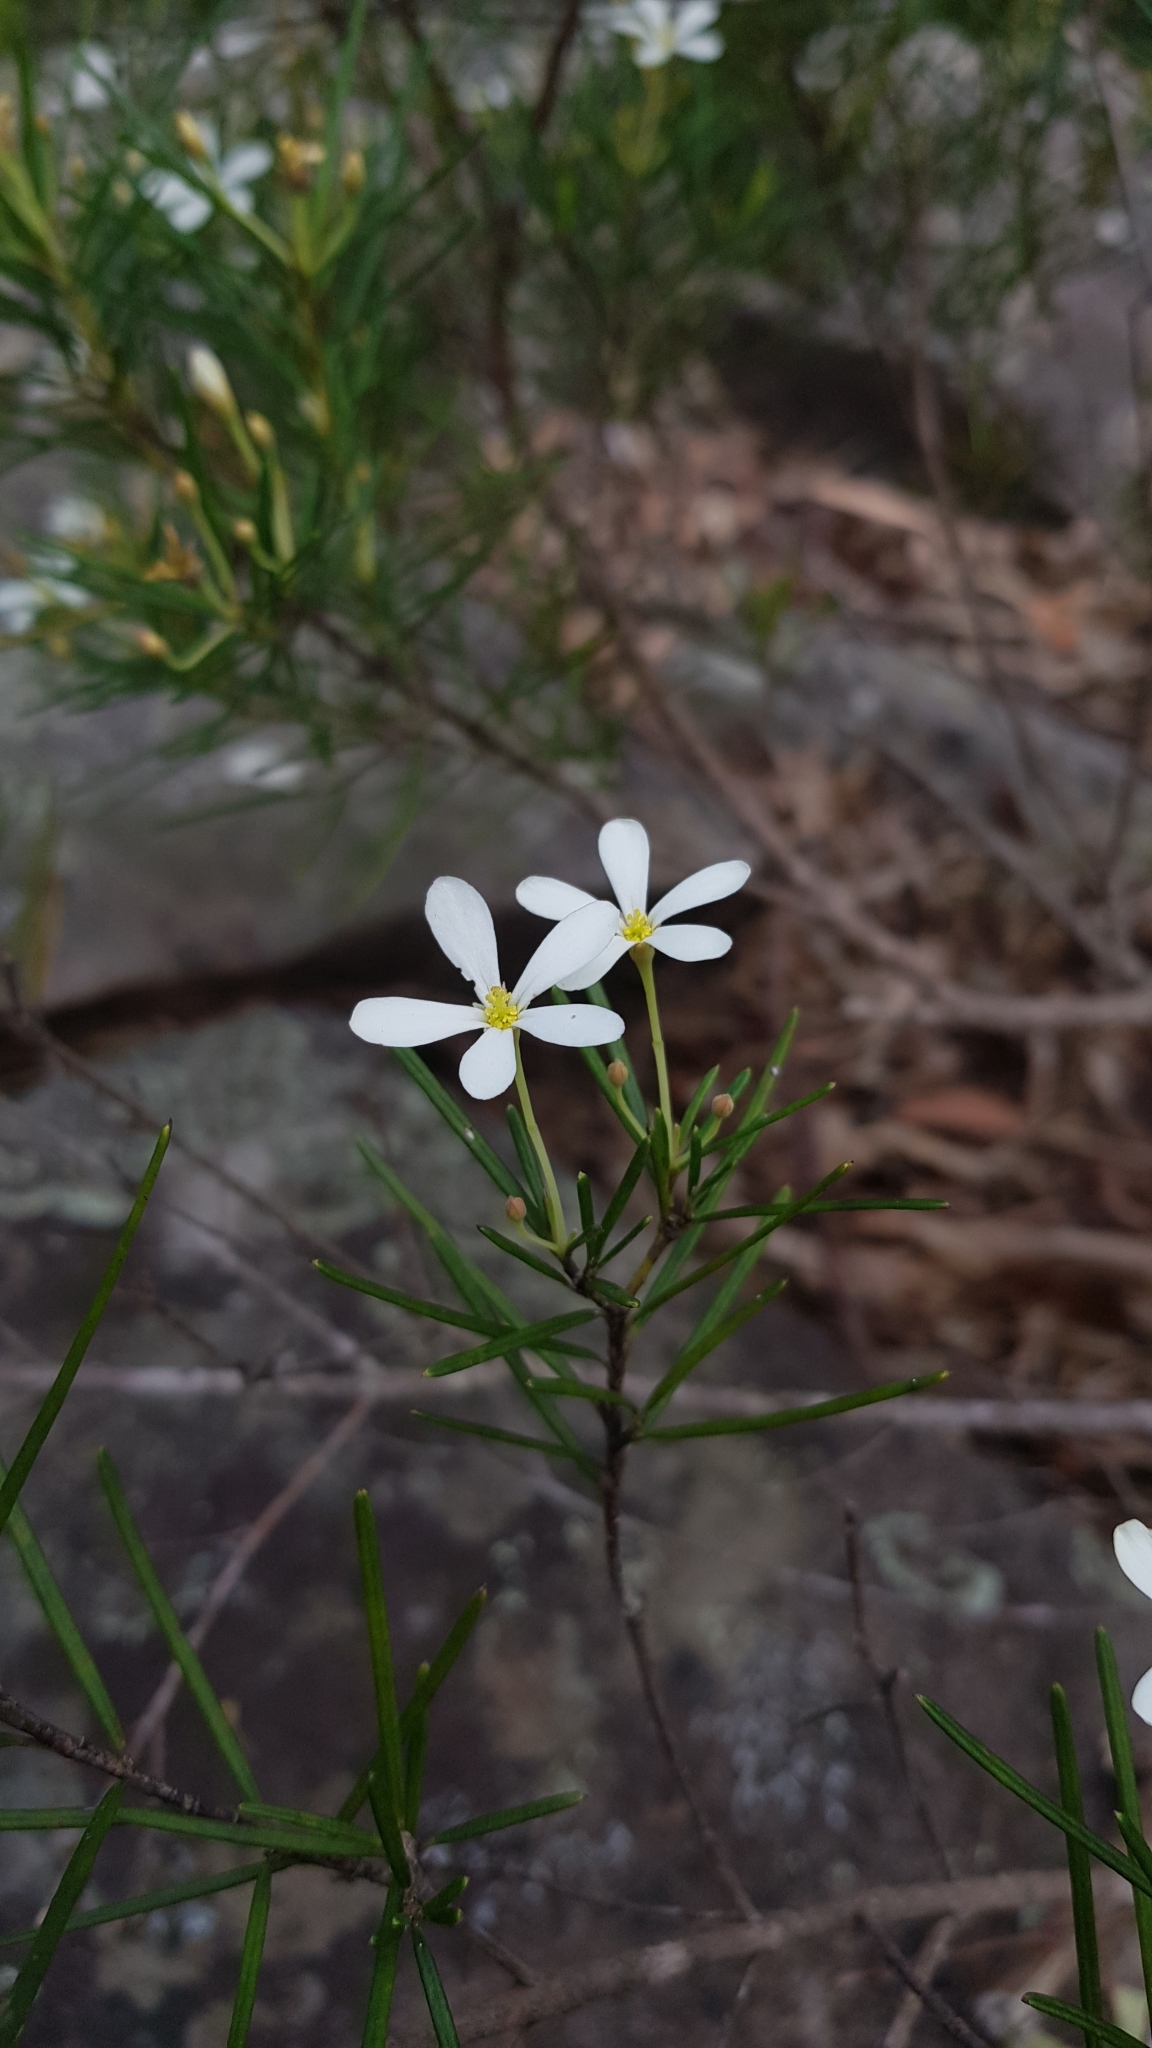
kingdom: Plantae
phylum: Tracheophyta
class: Magnoliopsida
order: Malpighiales
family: Euphorbiaceae
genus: Ricinocarpos
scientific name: Ricinocarpos pinifolius
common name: Weddingbush
